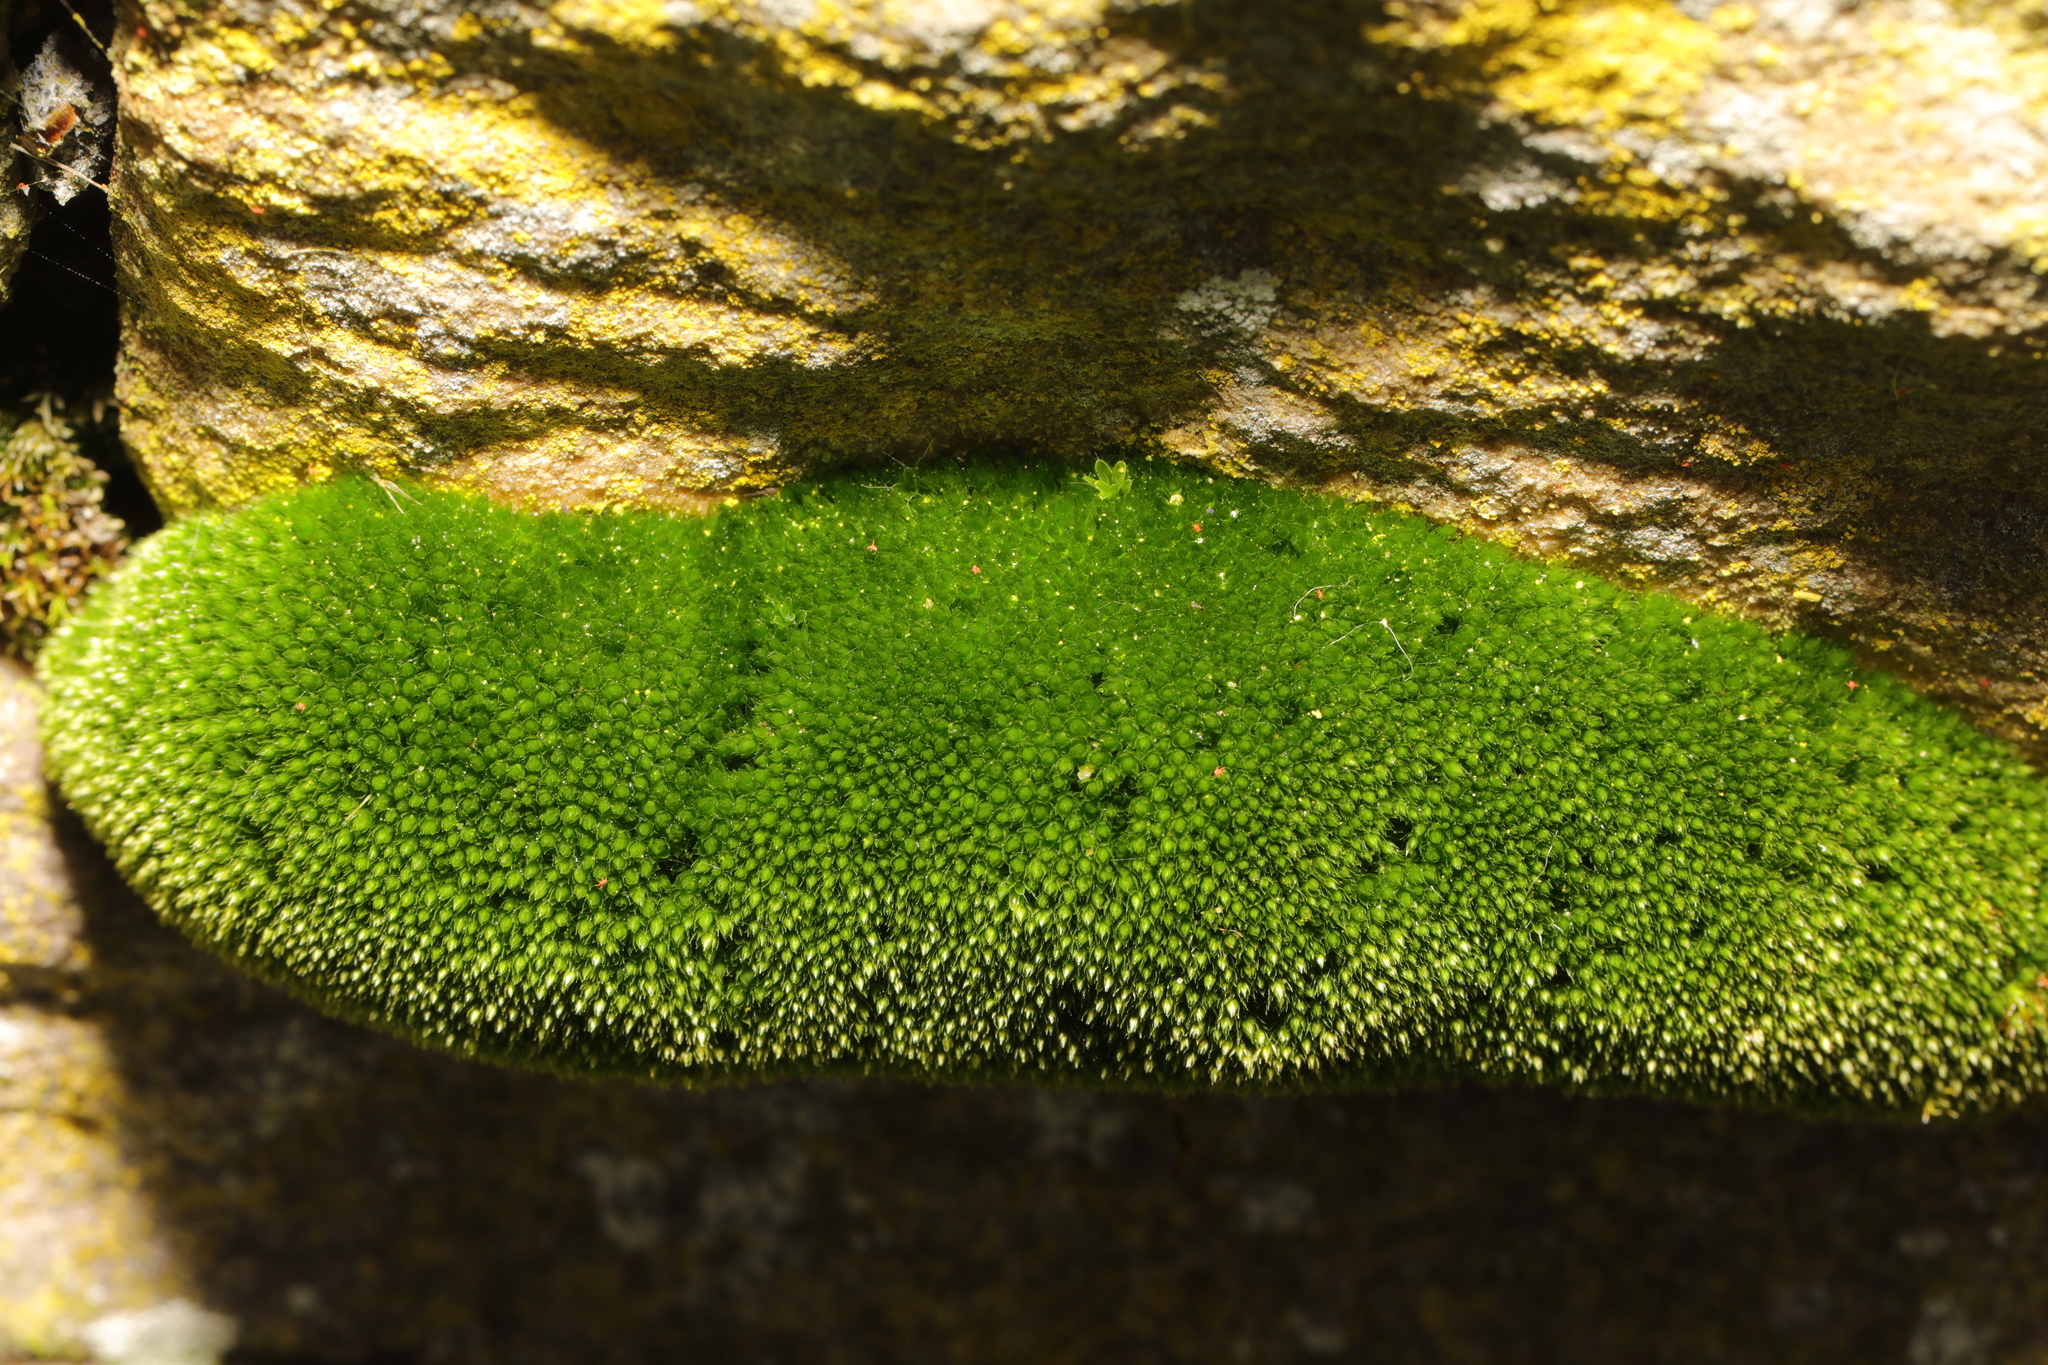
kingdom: Plantae
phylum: Bryophyta
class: Bryopsida
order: Bryales
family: Bryaceae
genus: Bryum
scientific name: Bryum argenteum
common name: Silver-moss
